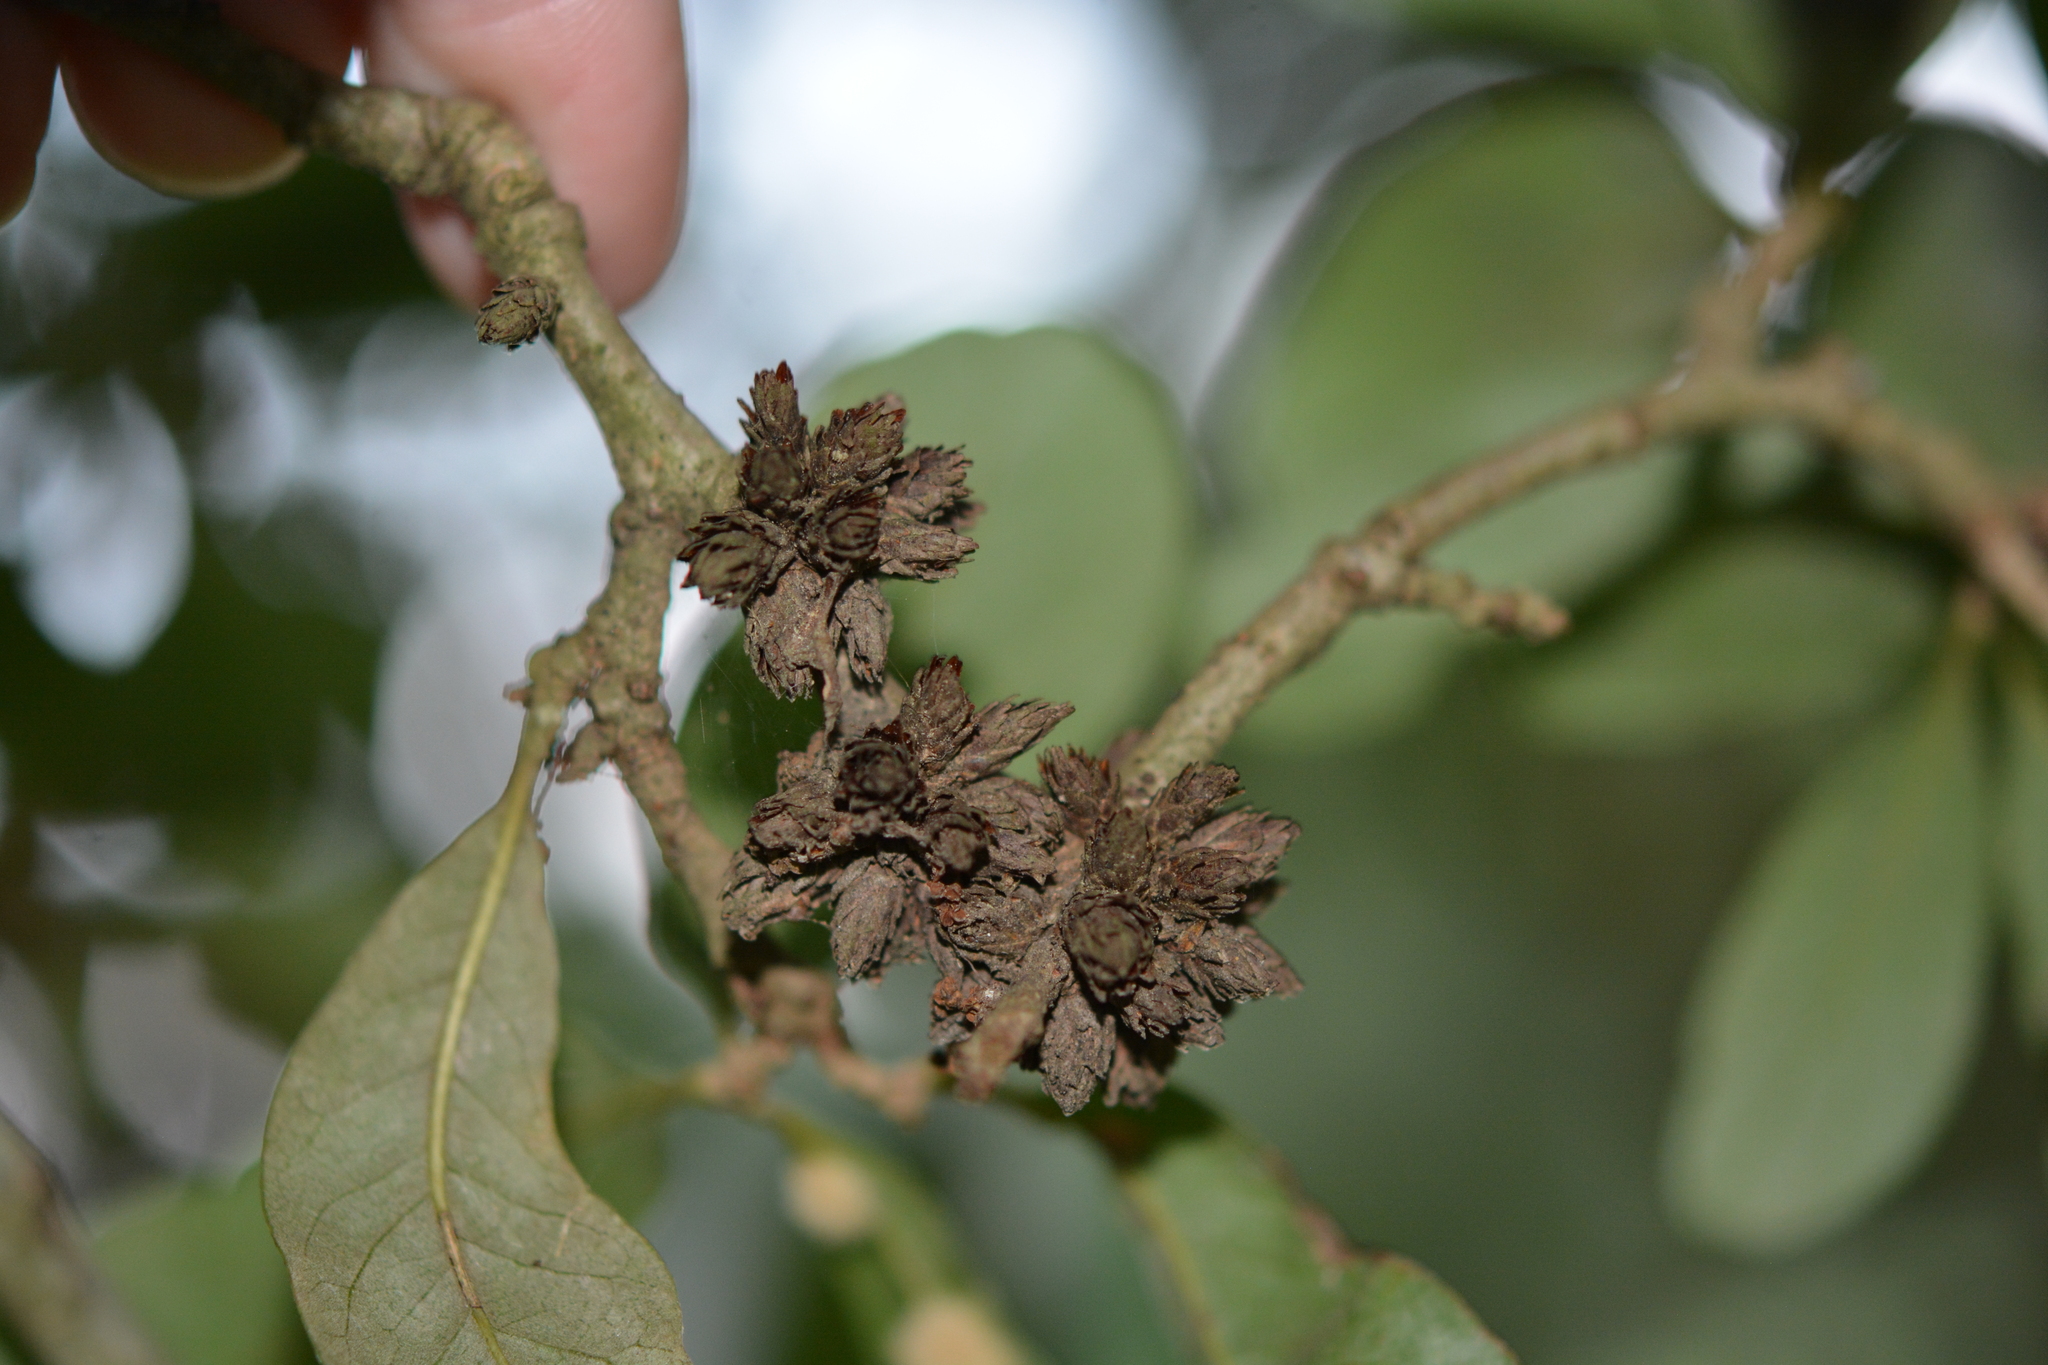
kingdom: Animalia
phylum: Arthropoda
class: Insecta
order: Diptera
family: Cecidomyiidae
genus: Arnoldiola
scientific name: Arnoldiola atra
